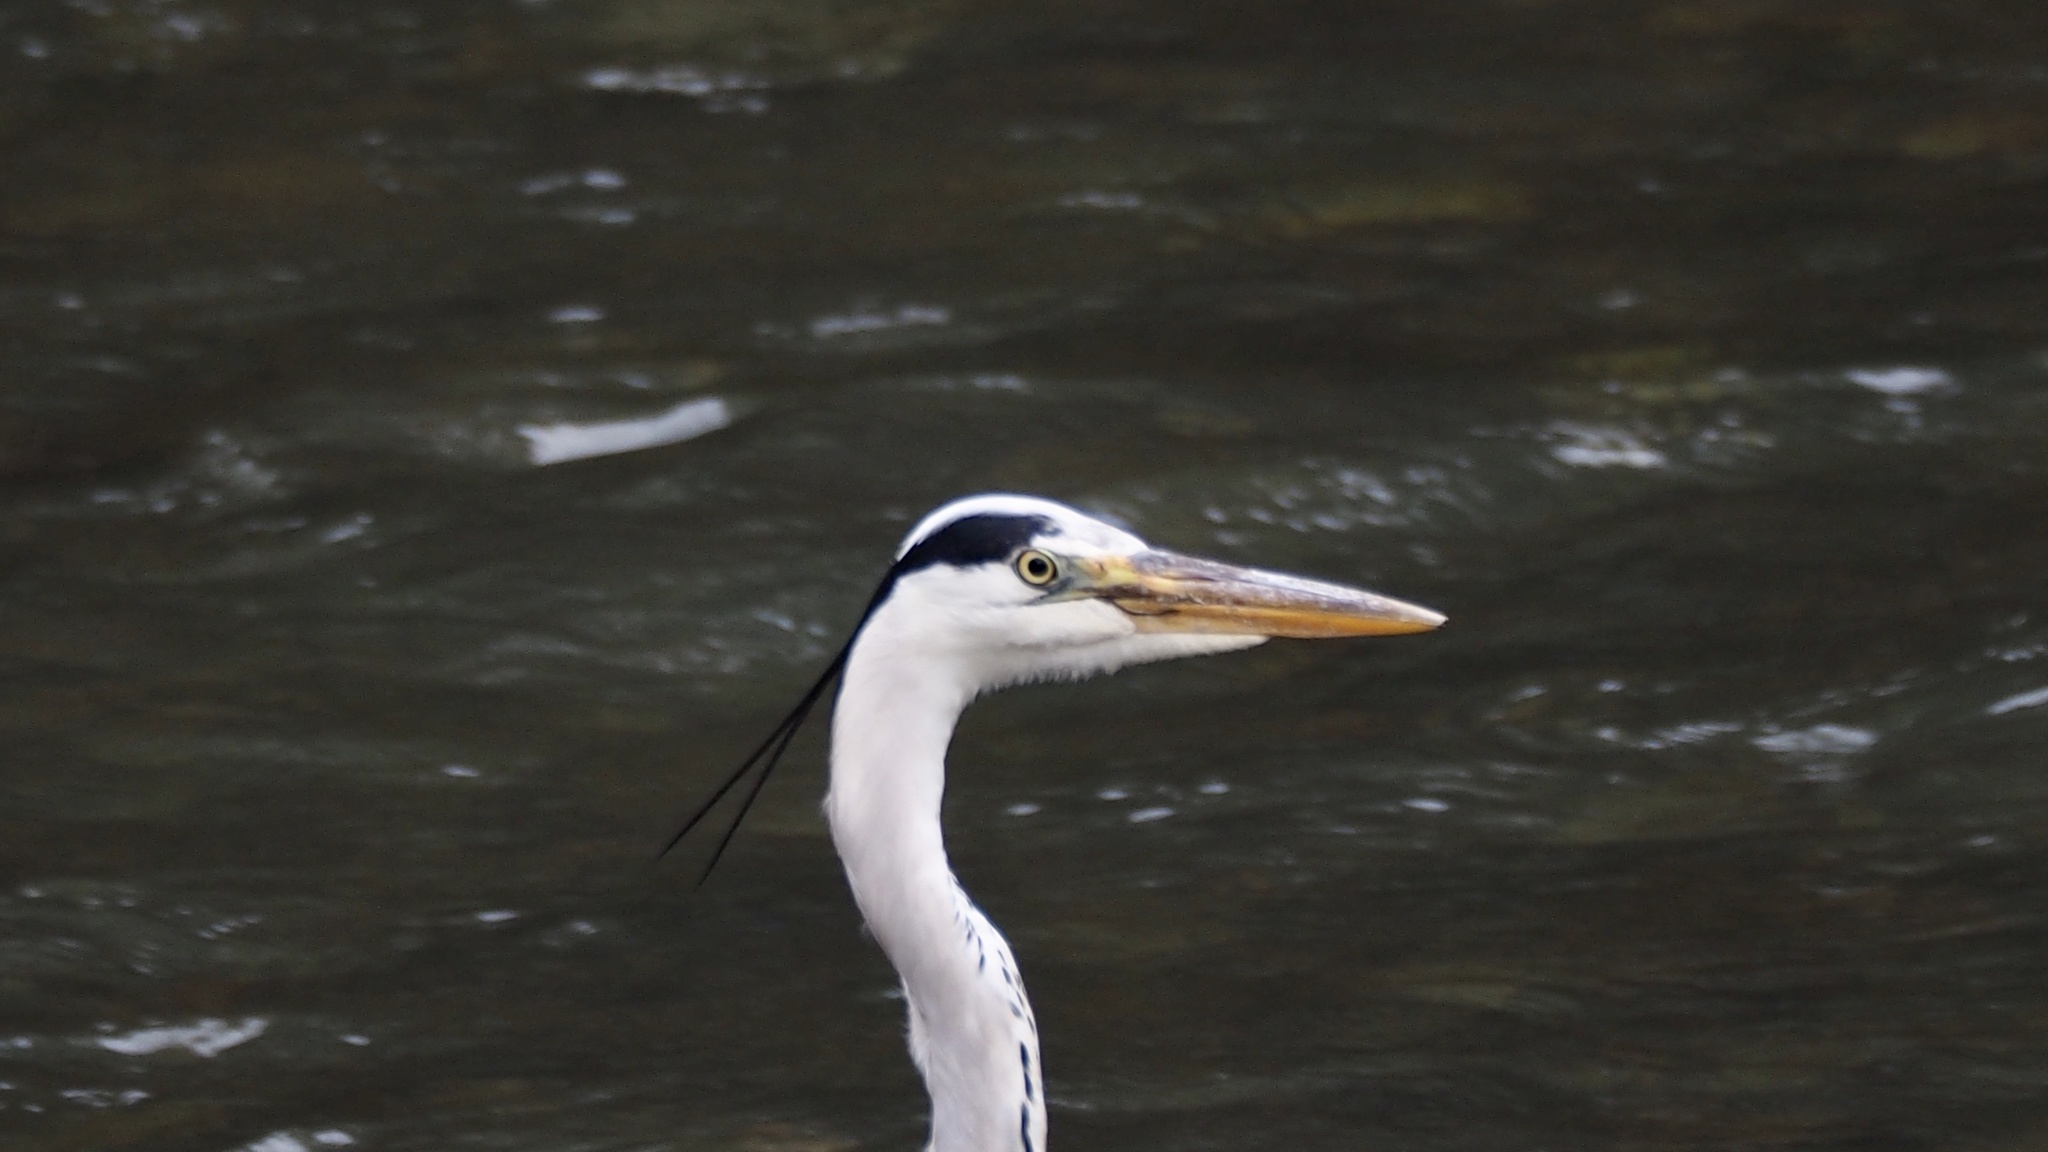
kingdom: Animalia
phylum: Chordata
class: Aves
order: Pelecaniformes
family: Ardeidae
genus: Ardea
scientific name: Ardea cinerea
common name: Grey heron
